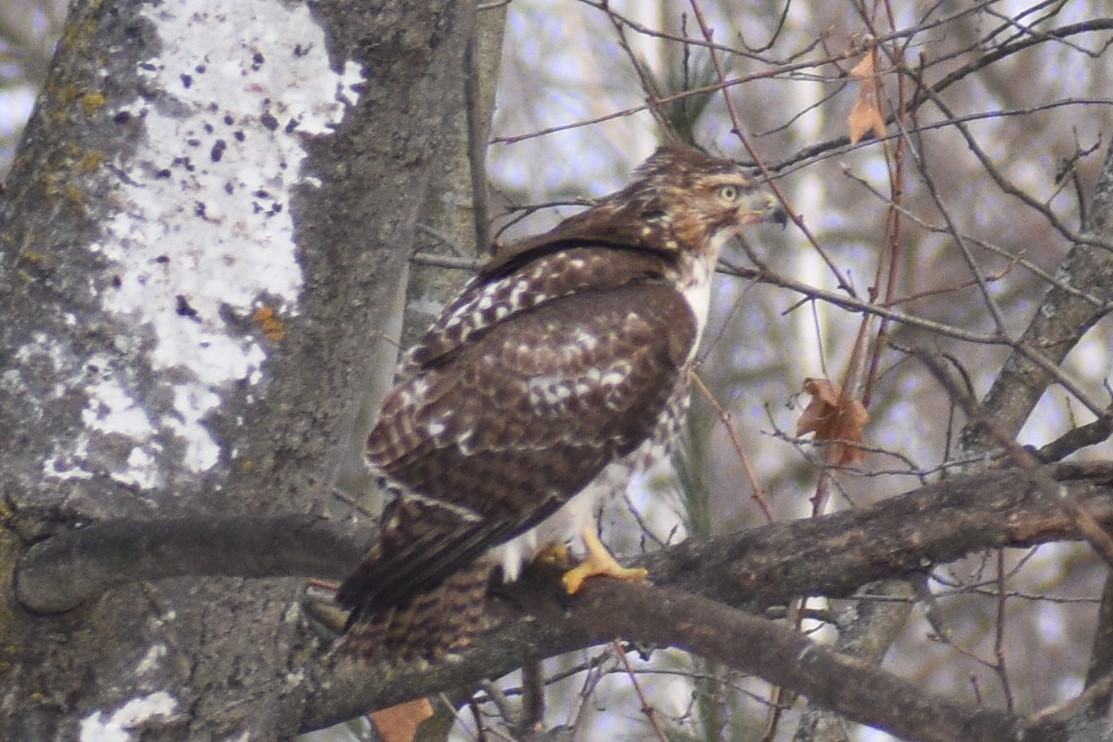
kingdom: Animalia
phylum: Chordata
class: Aves
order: Accipitriformes
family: Accipitridae
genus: Buteo
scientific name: Buteo jamaicensis
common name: Red-tailed hawk
